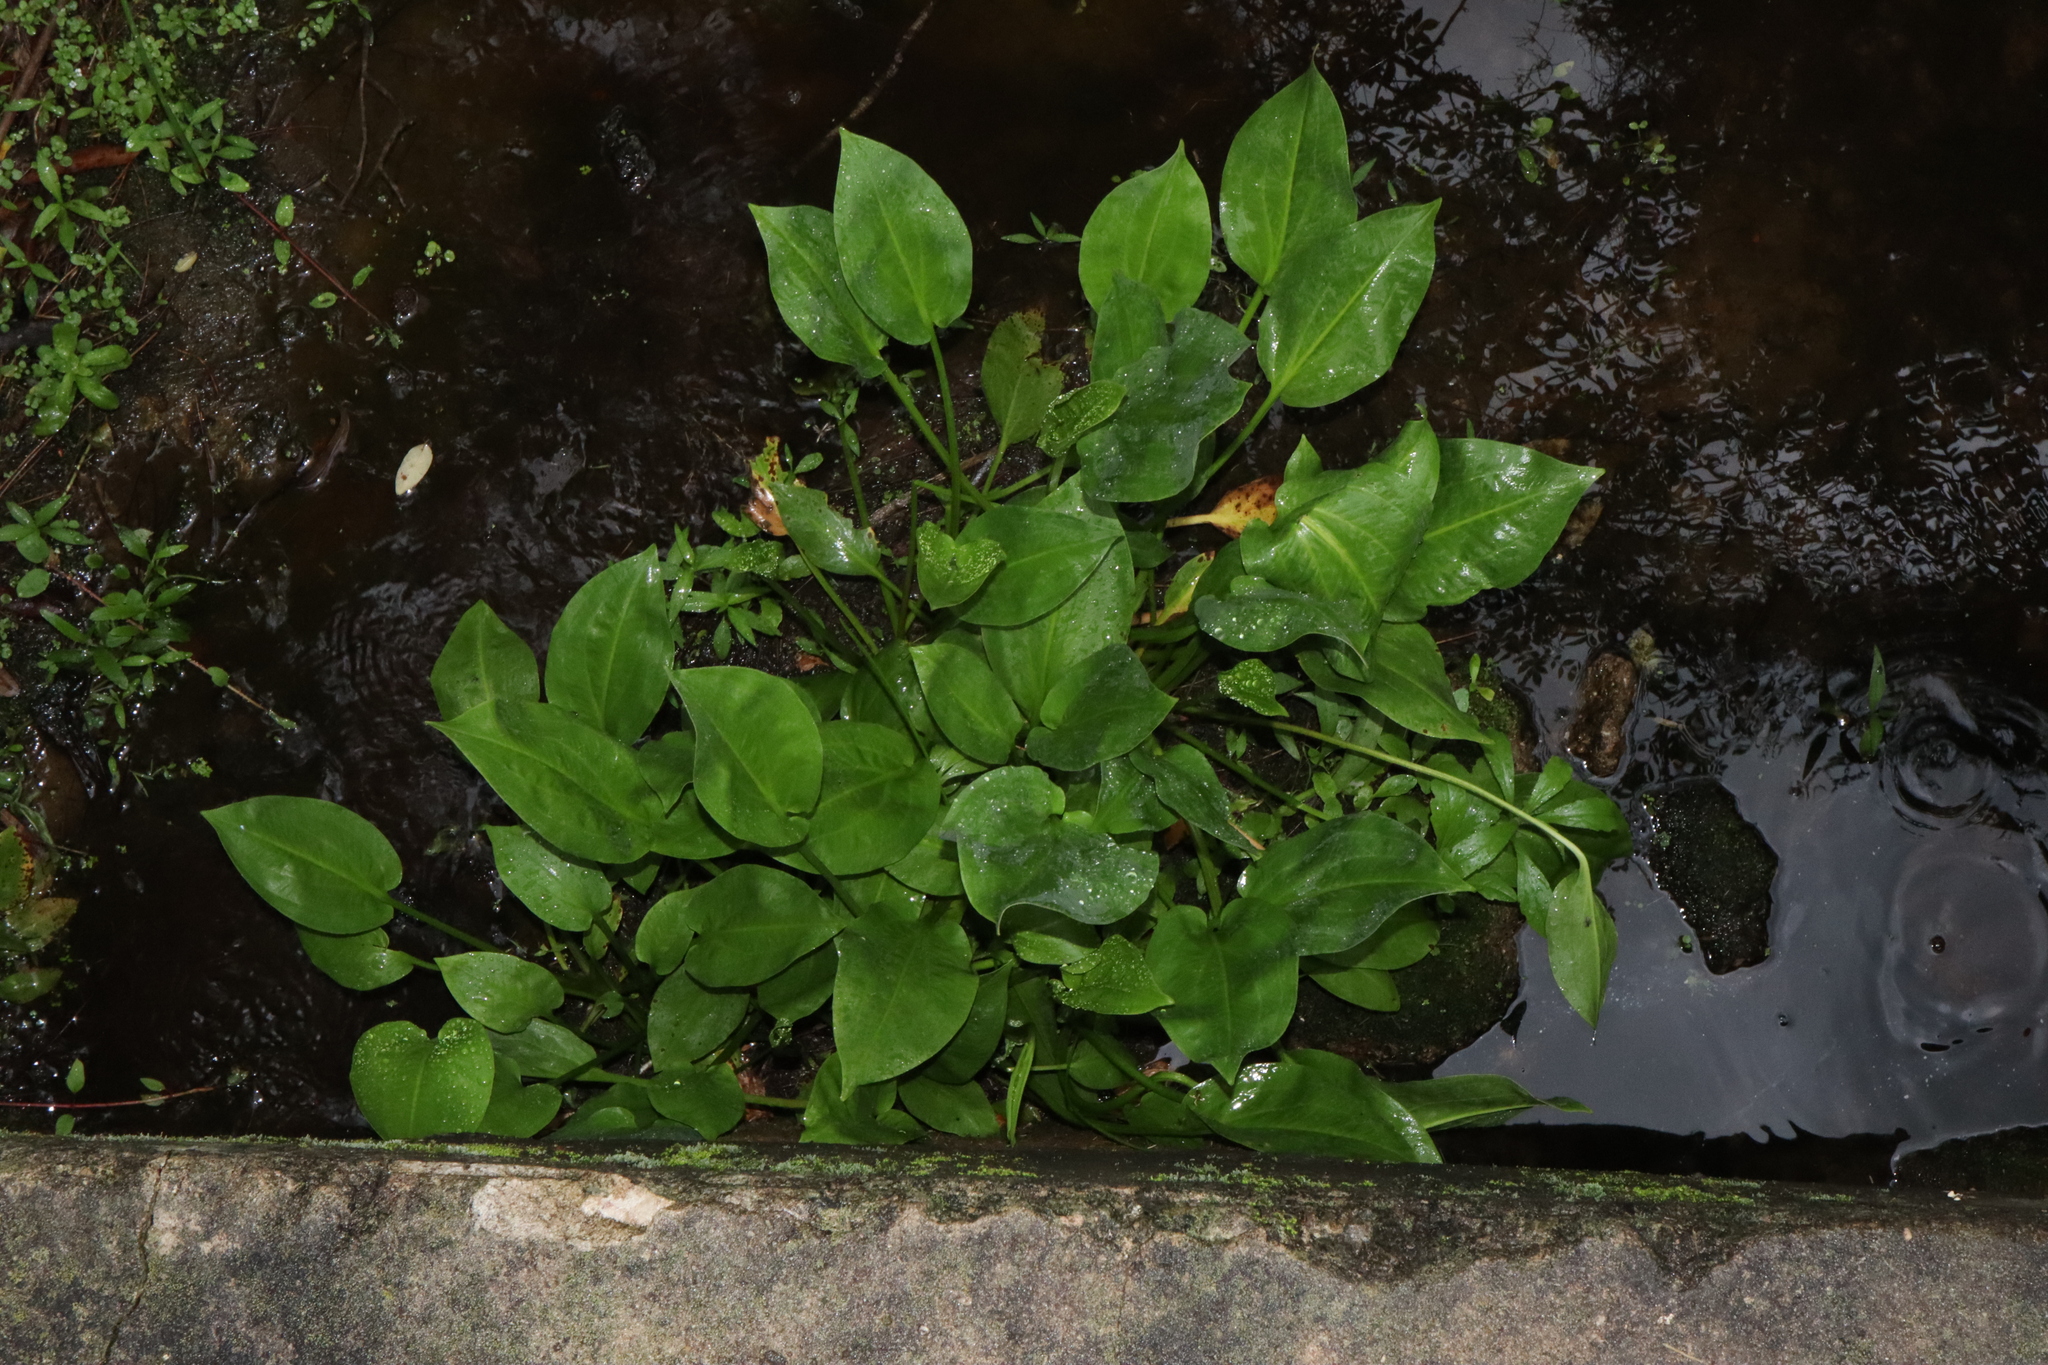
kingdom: Plantae
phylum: Tracheophyta
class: Liliopsida
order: Alismatales
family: Alismataceae
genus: Alisma
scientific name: Alisma plantago-aquatica
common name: Water-plantain
